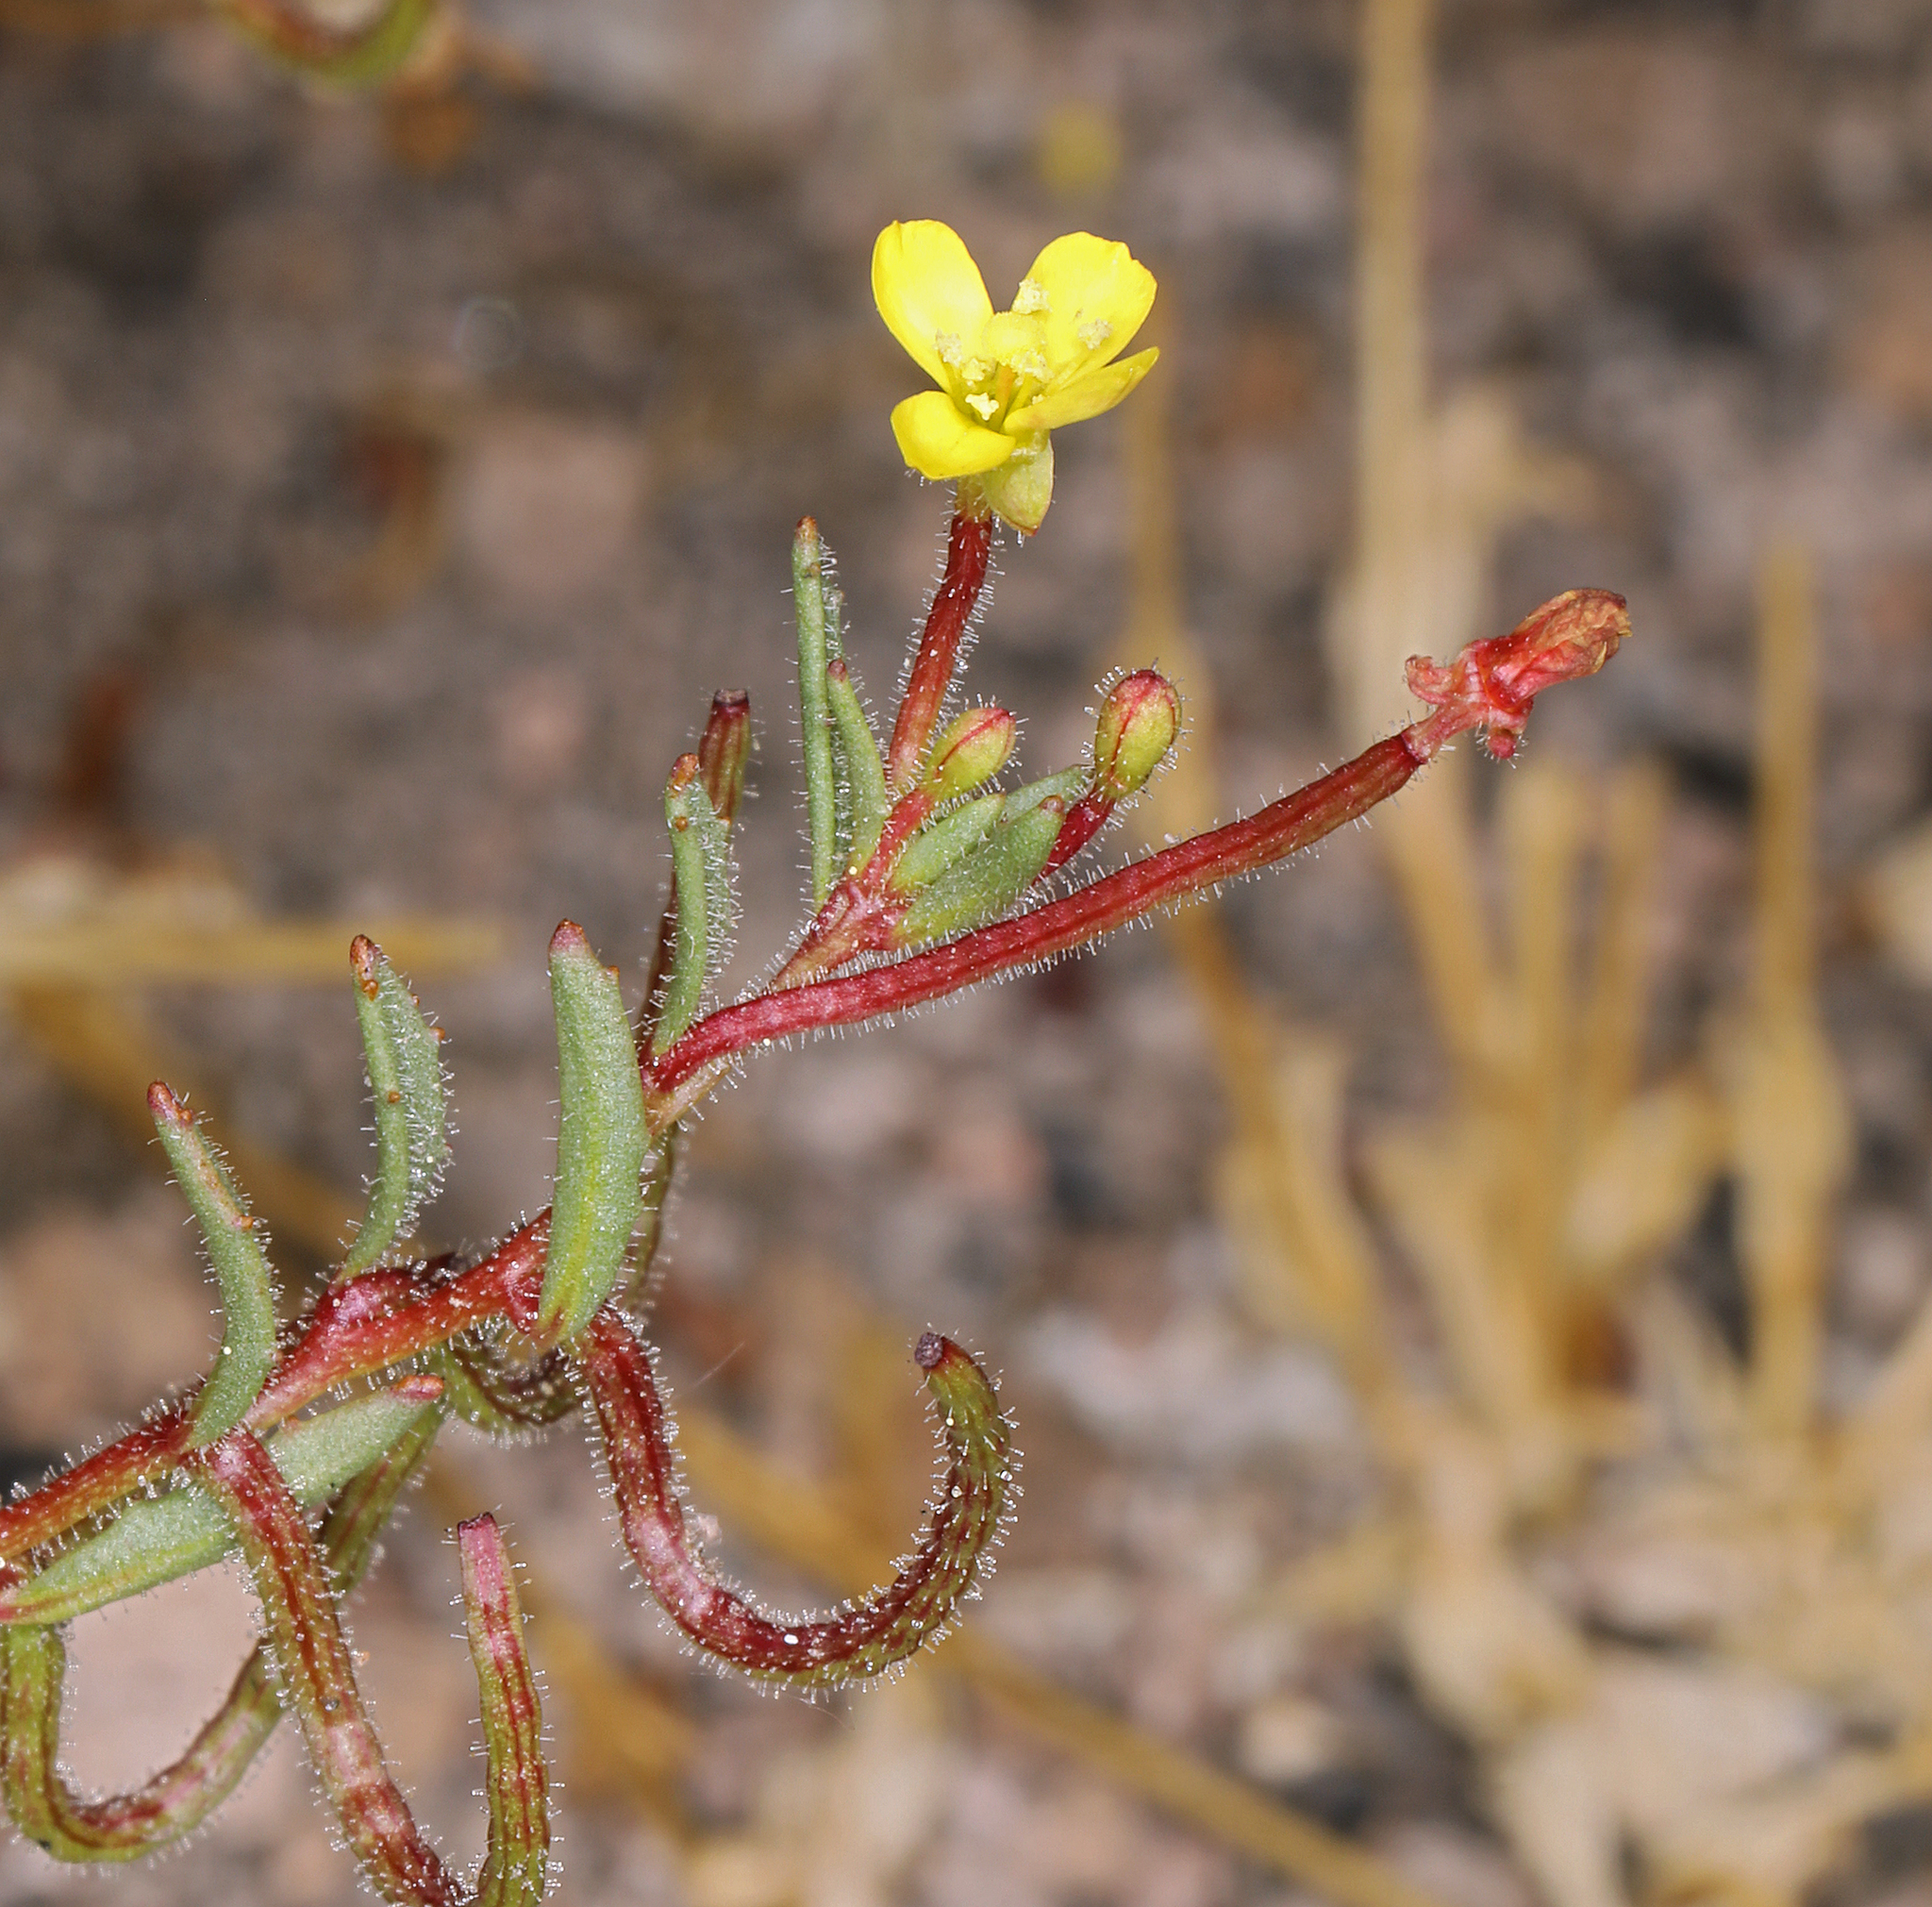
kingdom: Plantae
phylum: Tracheophyta
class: Magnoliopsida
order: Myrtales
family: Onagraceae
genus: Camissonia
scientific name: Camissonia contorta
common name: Contorted suncup
